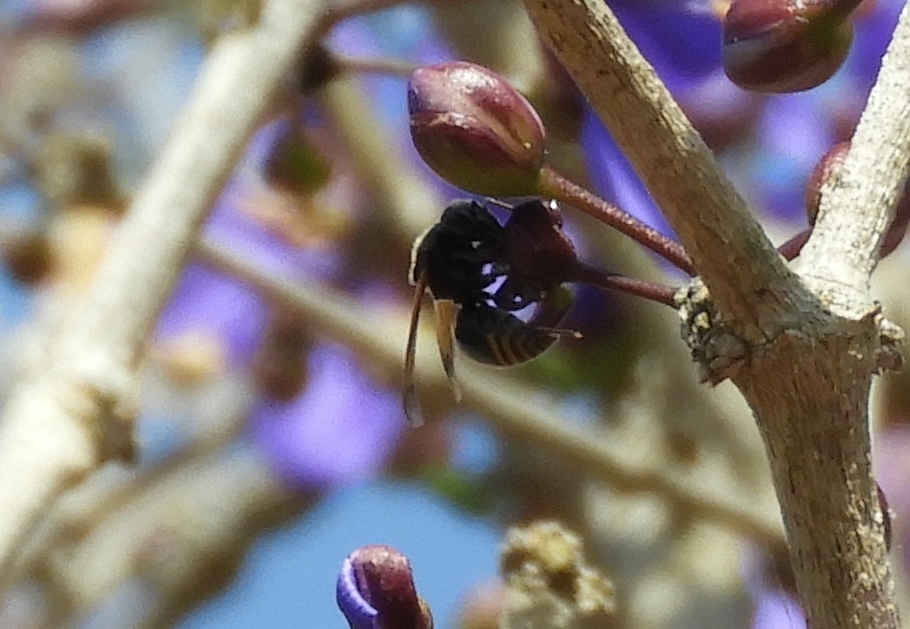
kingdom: Animalia
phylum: Arthropoda
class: Insecta
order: Hymenoptera
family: Vespidae
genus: Brachygastra
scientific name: Brachygastra mellifica
